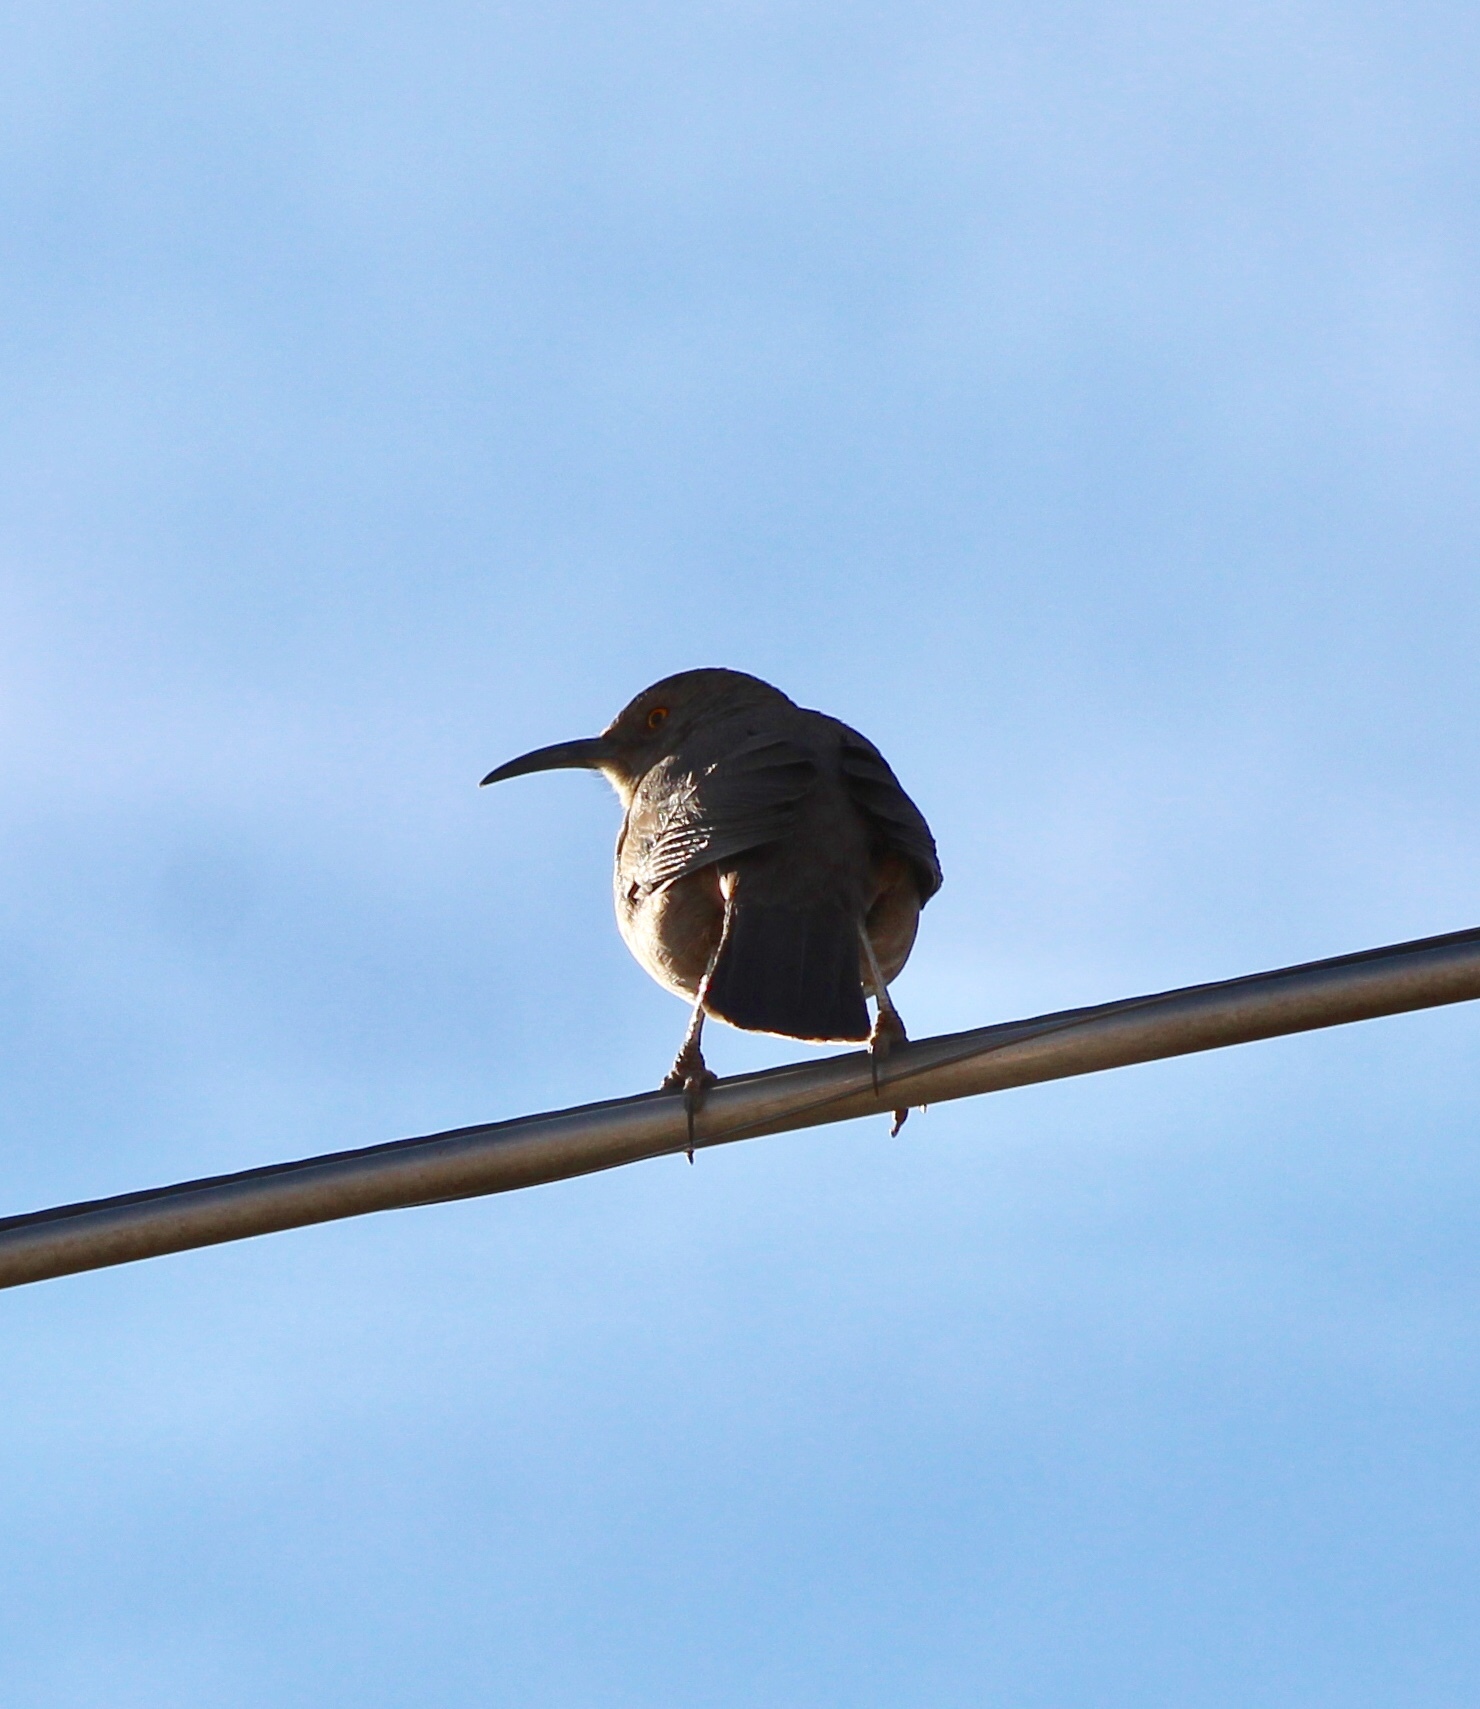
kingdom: Animalia
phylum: Chordata
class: Aves
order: Passeriformes
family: Mimidae
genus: Toxostoma
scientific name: Toxostoma curvirostre
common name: Curve-billed thrasher
